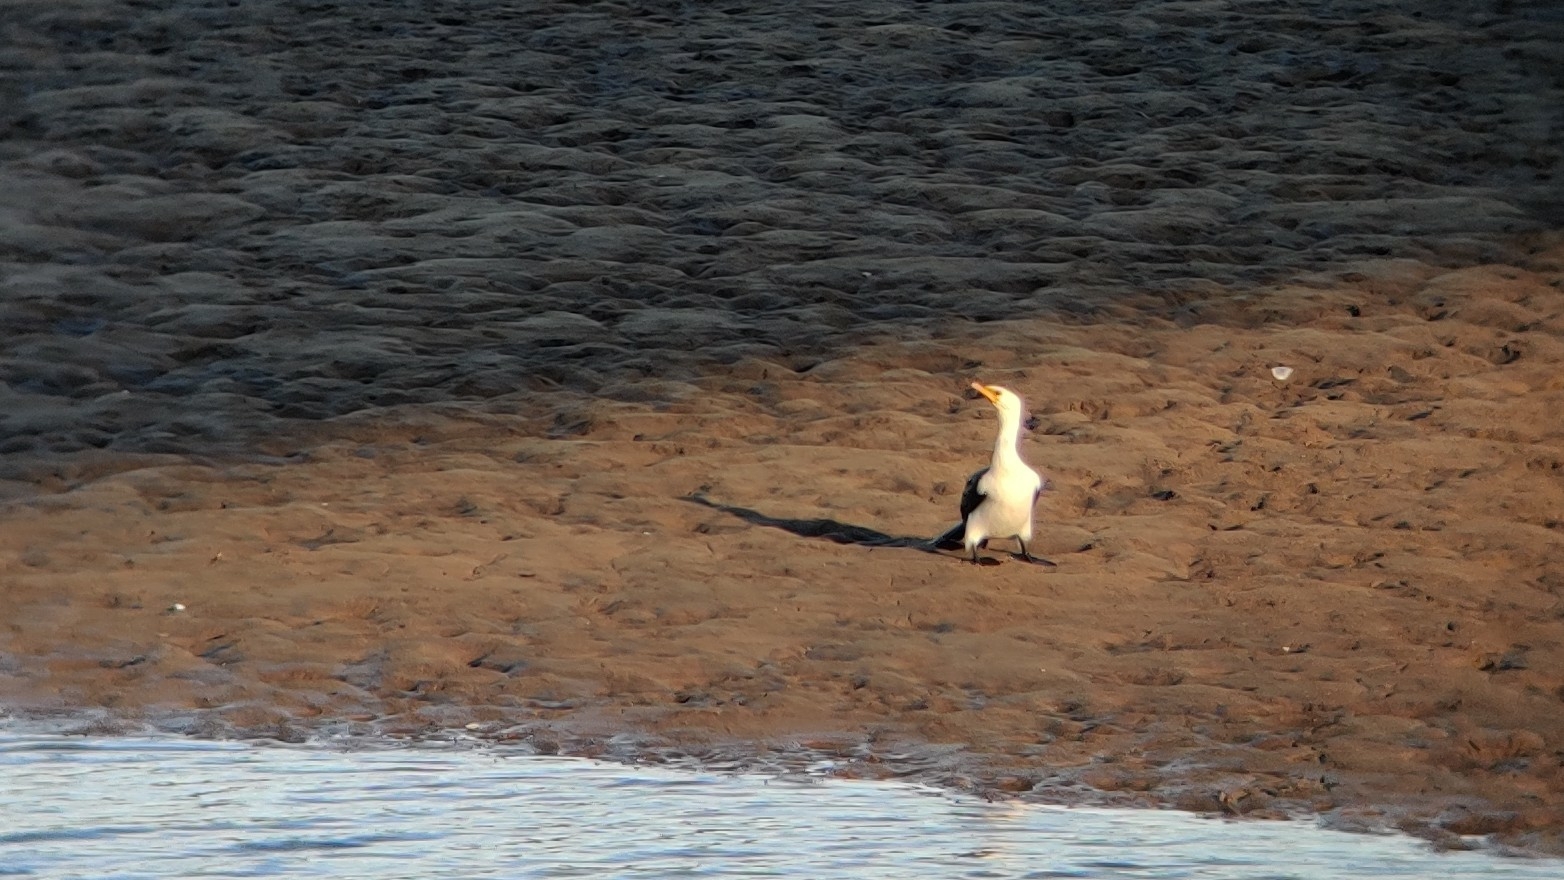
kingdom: Animalia
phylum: Chordata
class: Aves
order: Suliformes
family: Phalacrocoracidae
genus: Microcarbo
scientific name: Microcarbo melanoleucos
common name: Little pied cormorant
